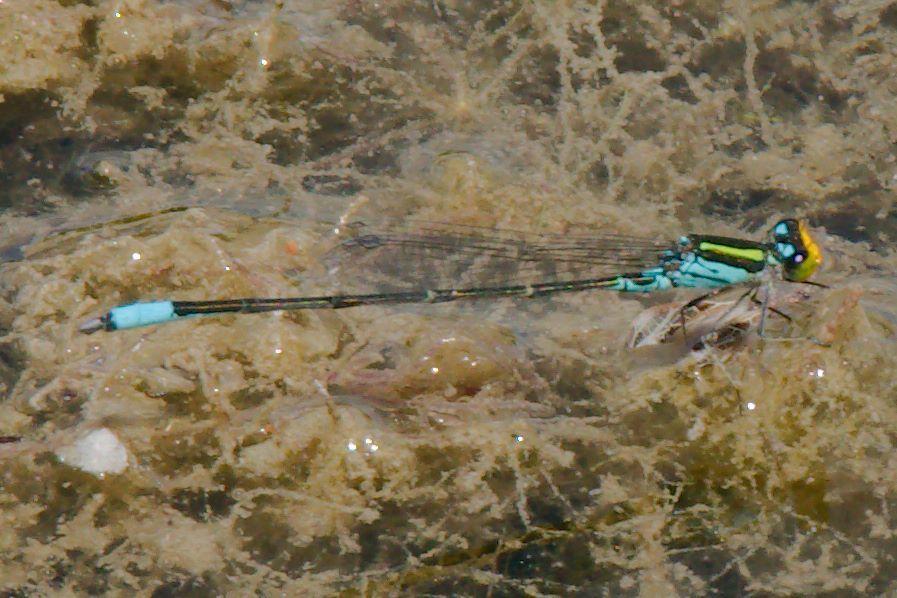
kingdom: Animalia
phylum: Arthropoda
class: Insecta
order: Odonata
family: Coenagrionidae
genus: Neoerythromma
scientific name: Neoerythromma cultellatum
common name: Caribbean yellowface
